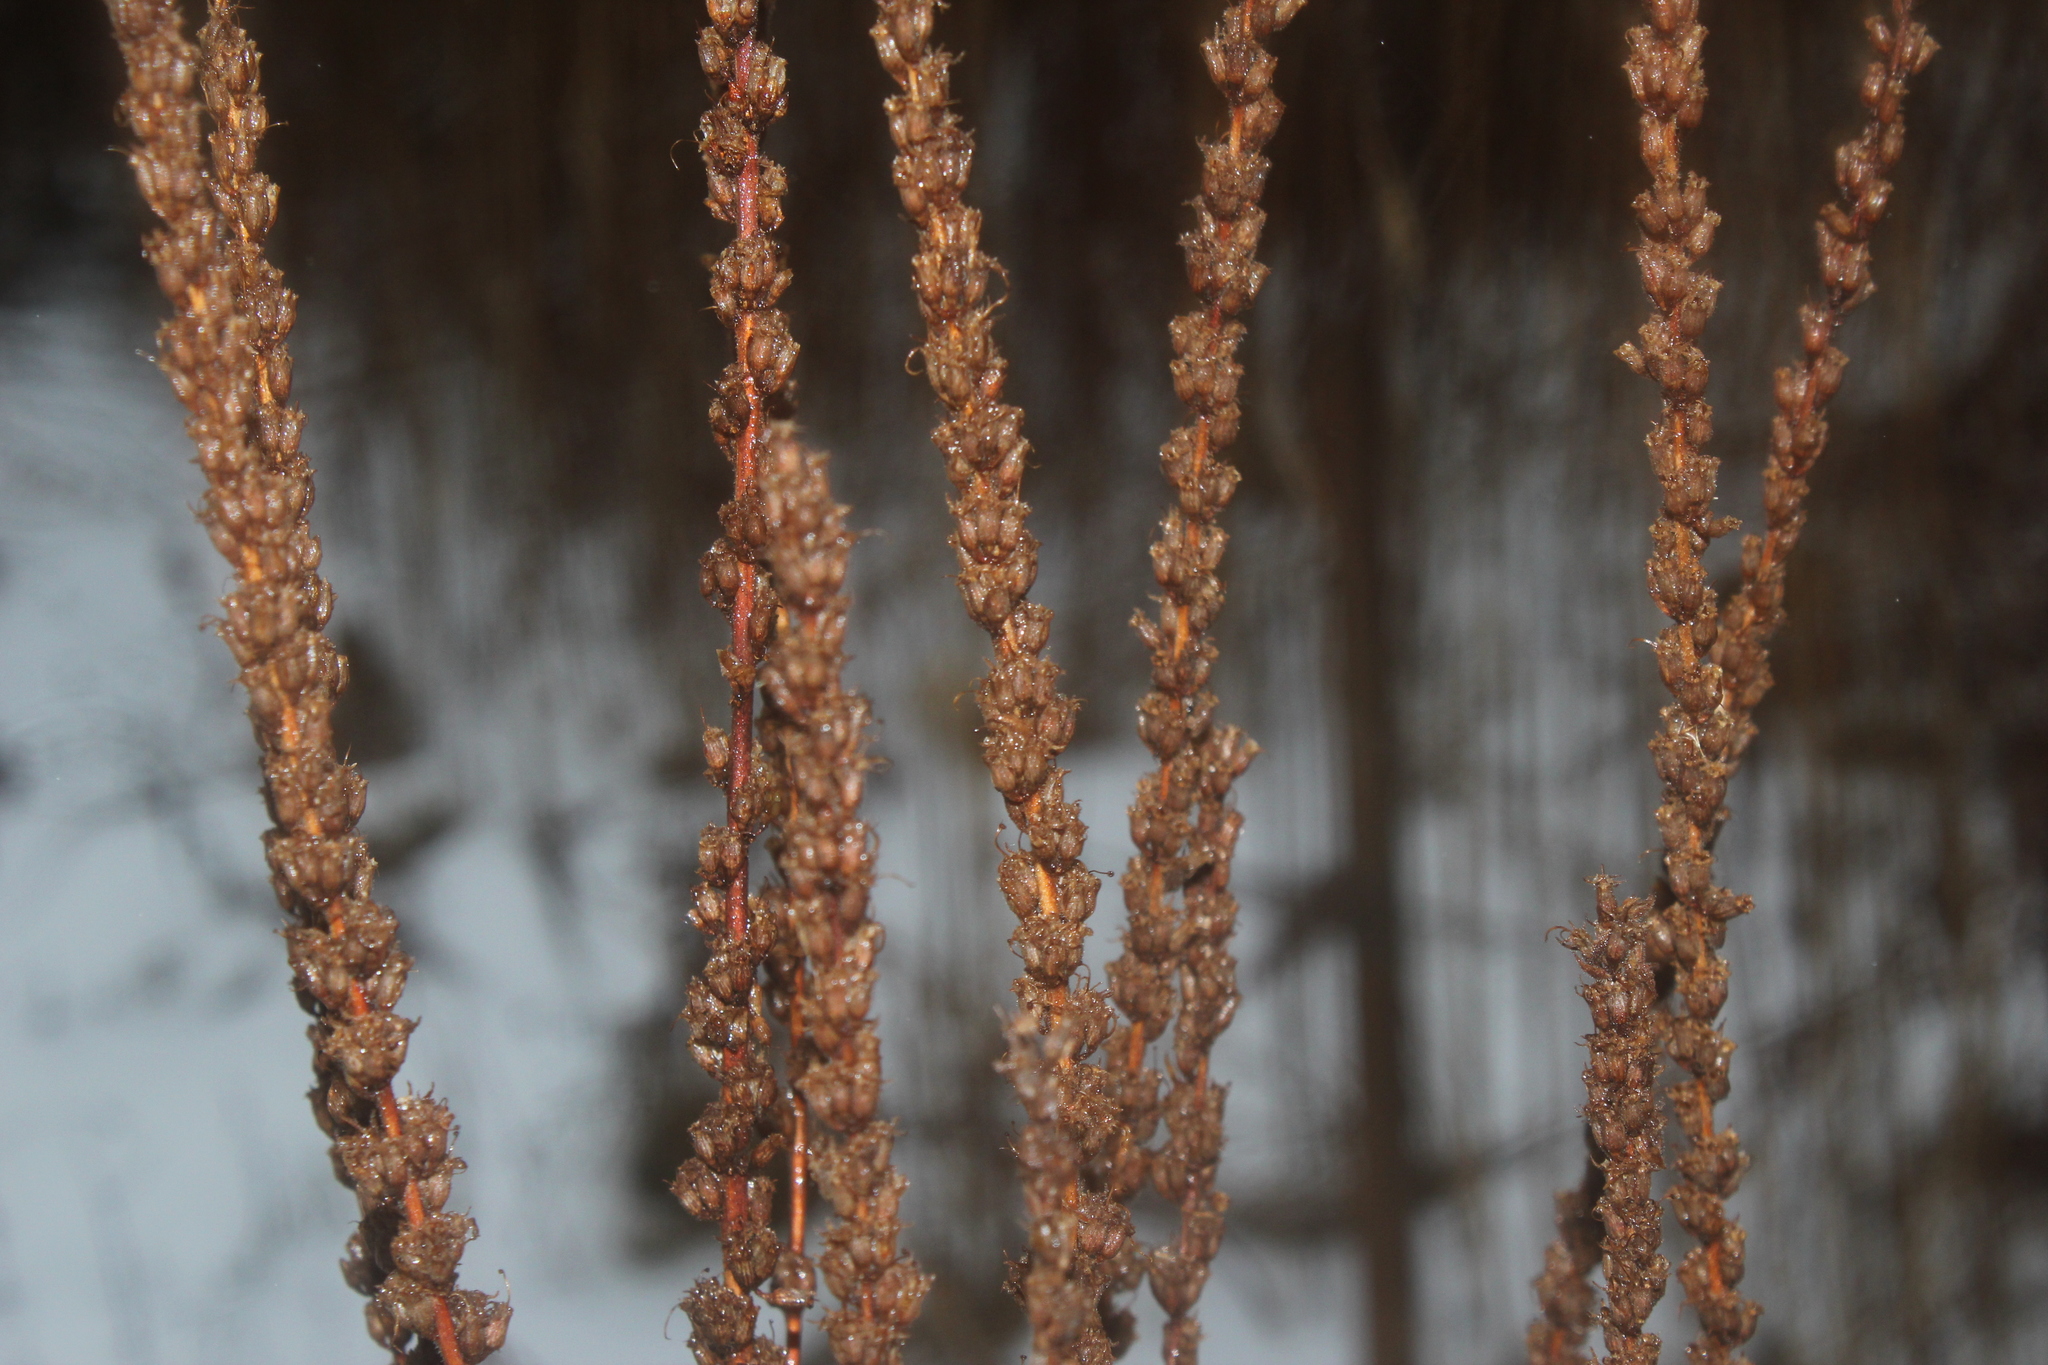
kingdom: Plantae
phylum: Tracheophyta
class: Magnoliopsida
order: Myrtales
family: Lythraceae
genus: Lythrum
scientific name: Lythrum salicaria
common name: Purple loosestrife
